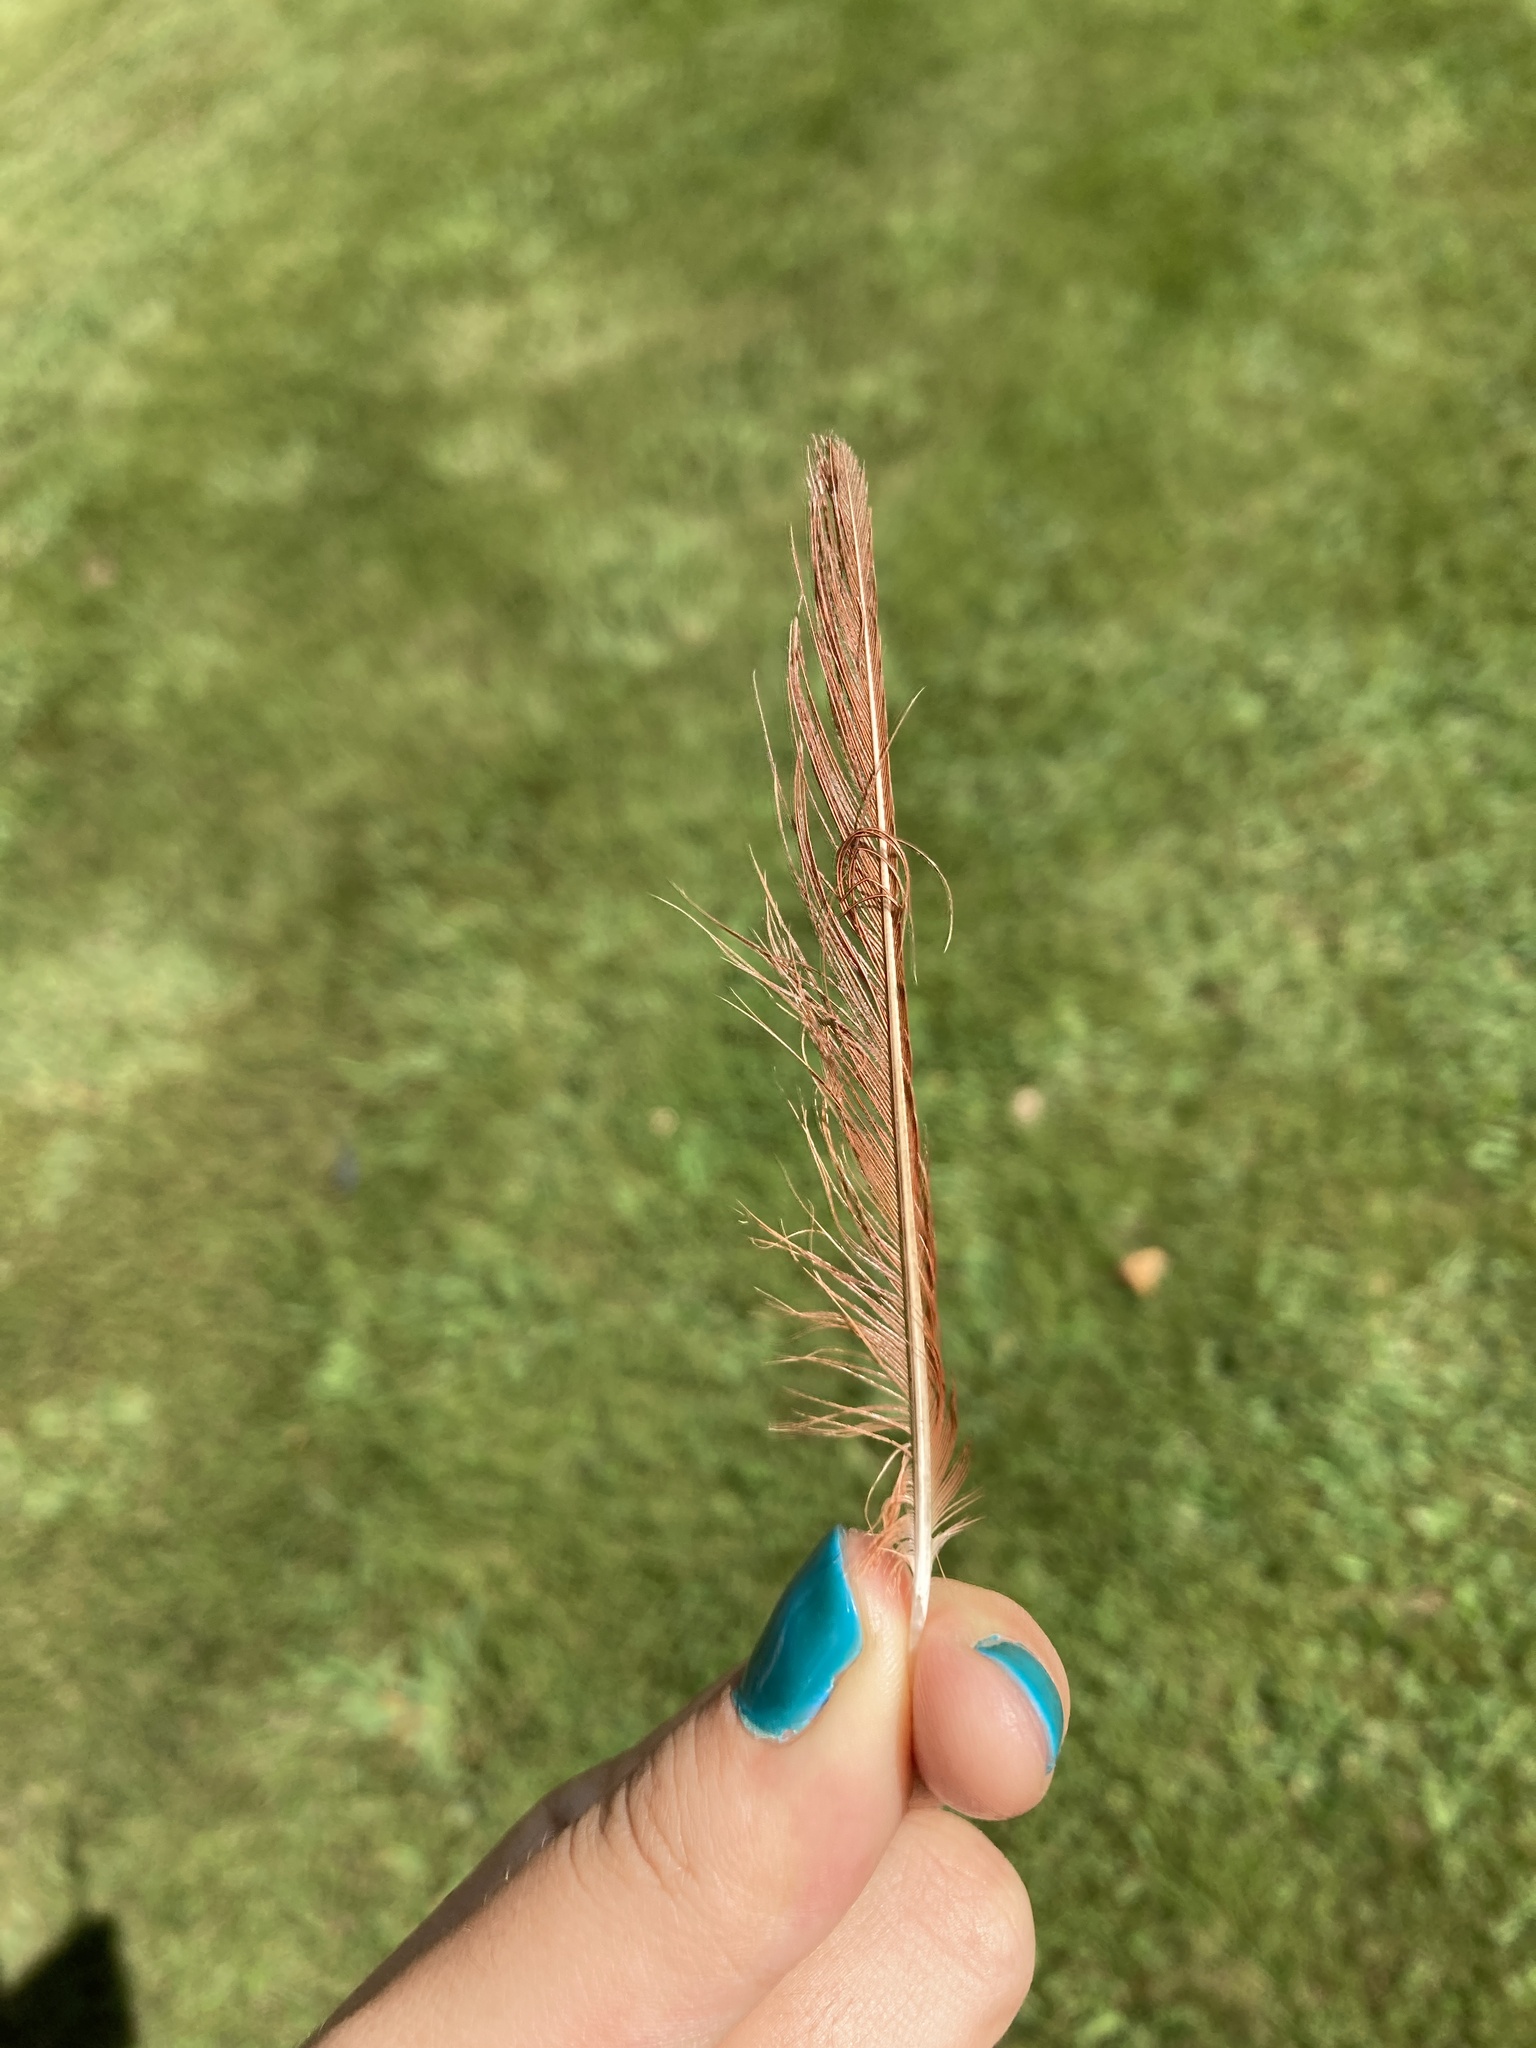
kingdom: Animalia
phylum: Chordata
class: Aves
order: Passeriformes
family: Cardinalidae
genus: Cardinalis
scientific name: Cardinalis cardinalis
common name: Northern cardinal
